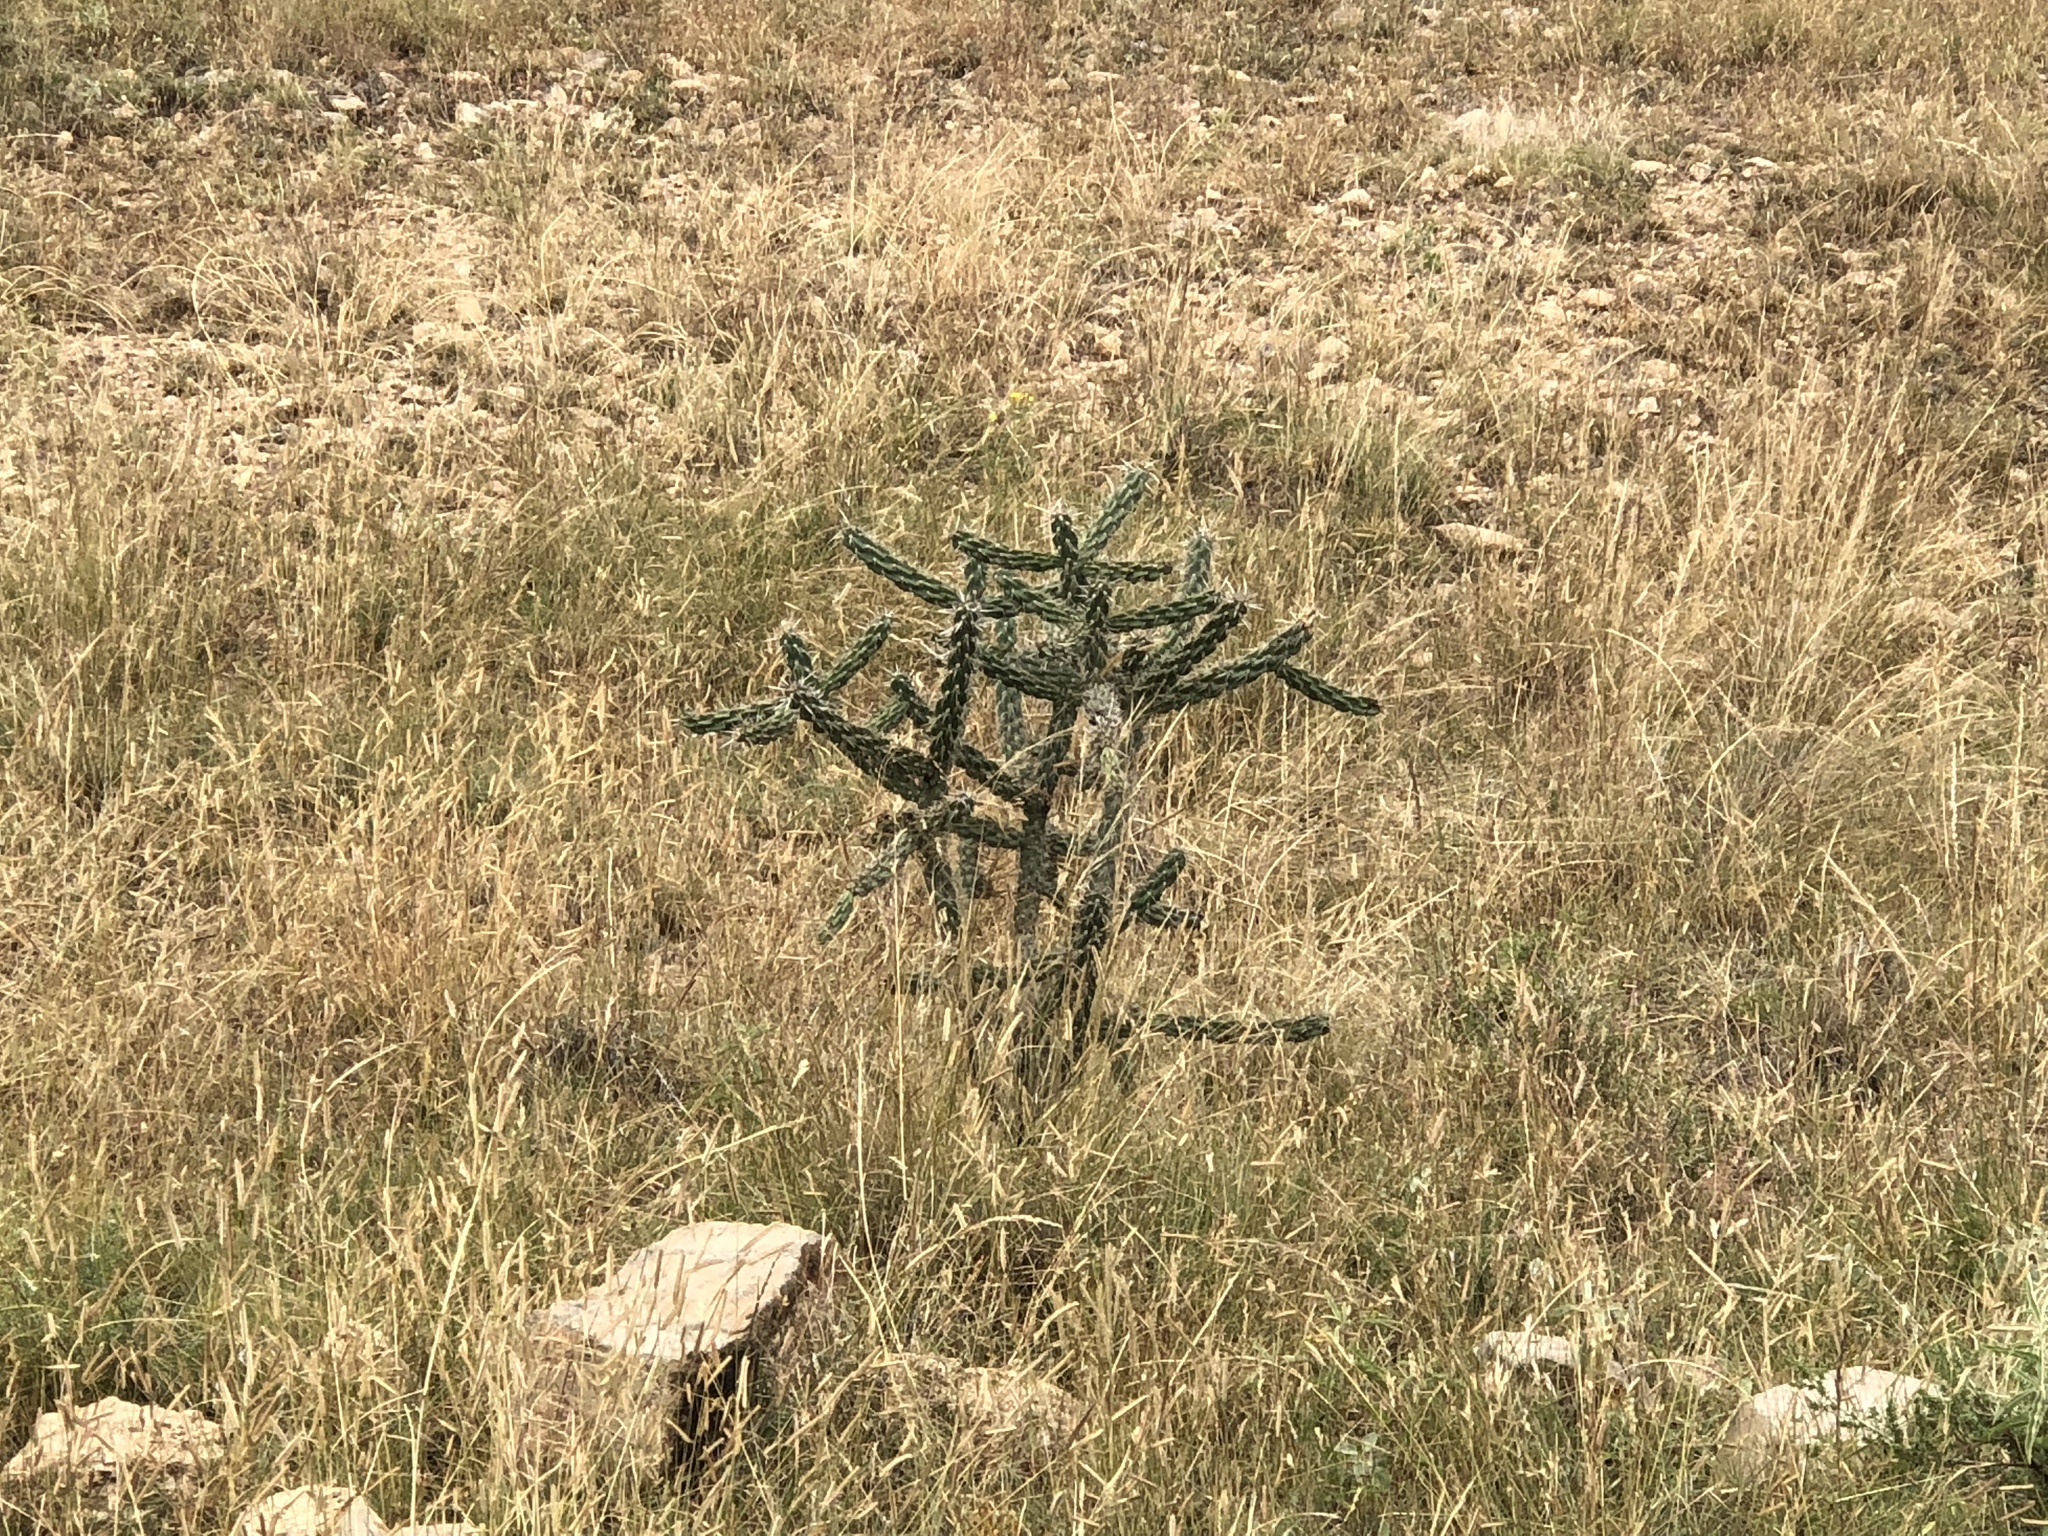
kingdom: Plantae
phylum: Tracheophyta
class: Magnoliopsida
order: Caryophyllales
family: Cactaceae
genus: Cylindropuntia
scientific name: Cylindropuntia imbricata
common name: Candelabrum cactus
